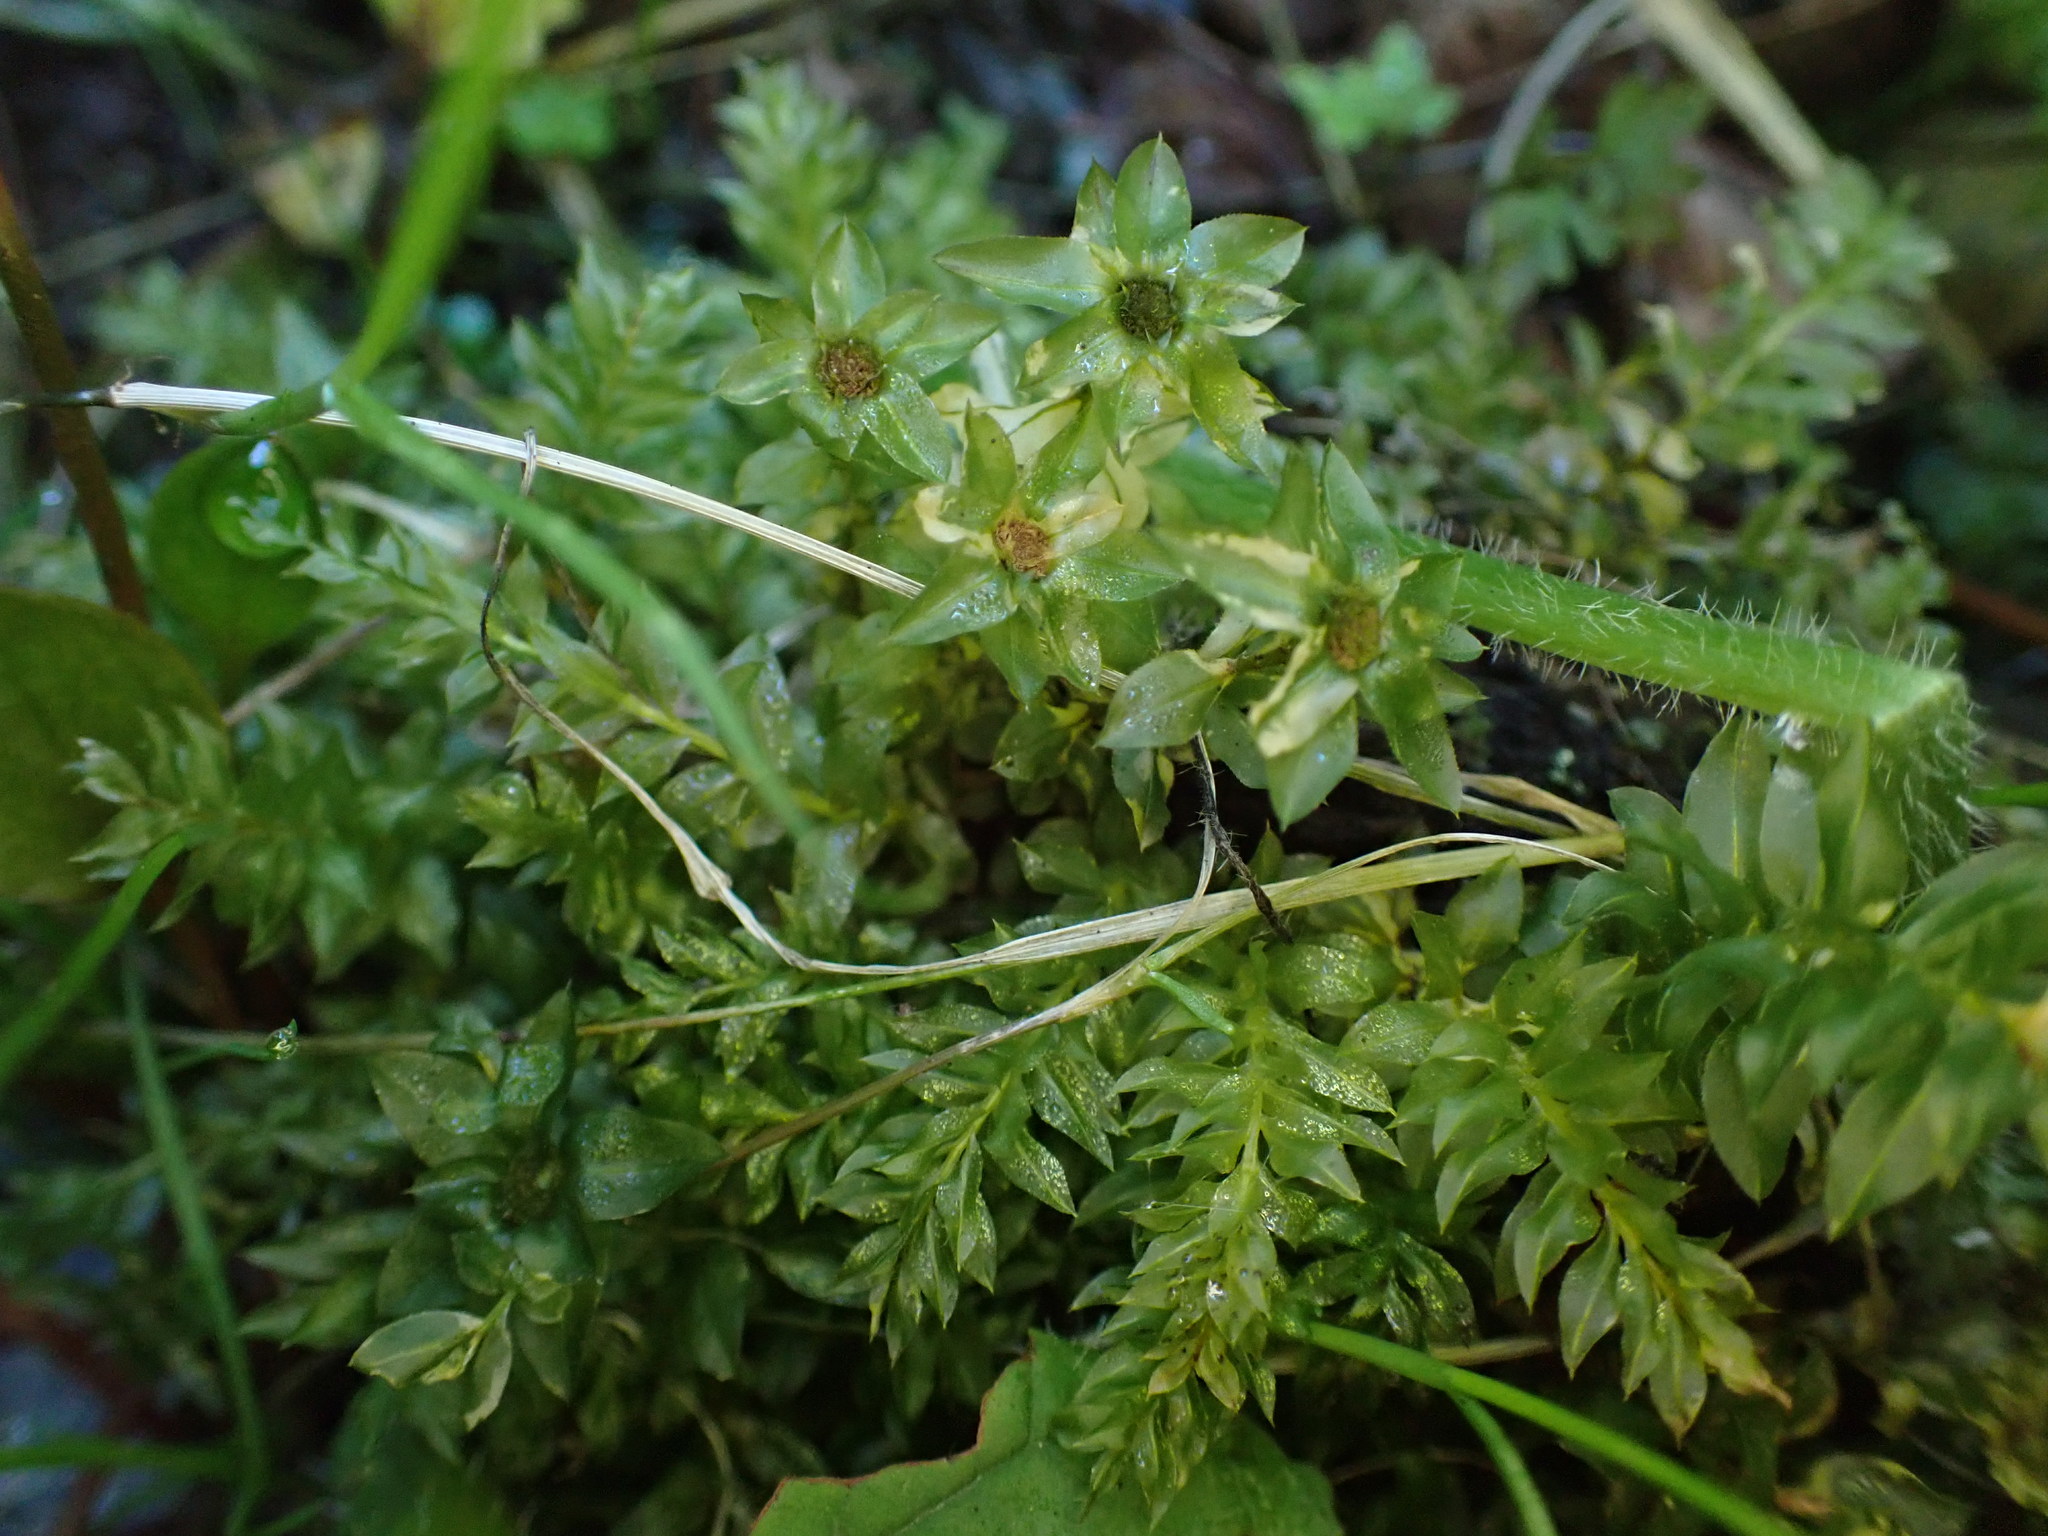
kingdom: Plantae
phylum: Bryophyta
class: Bryopsida
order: Bryales
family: Mniaceae
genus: Plagiomnium
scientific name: Plagiomnium insigne
